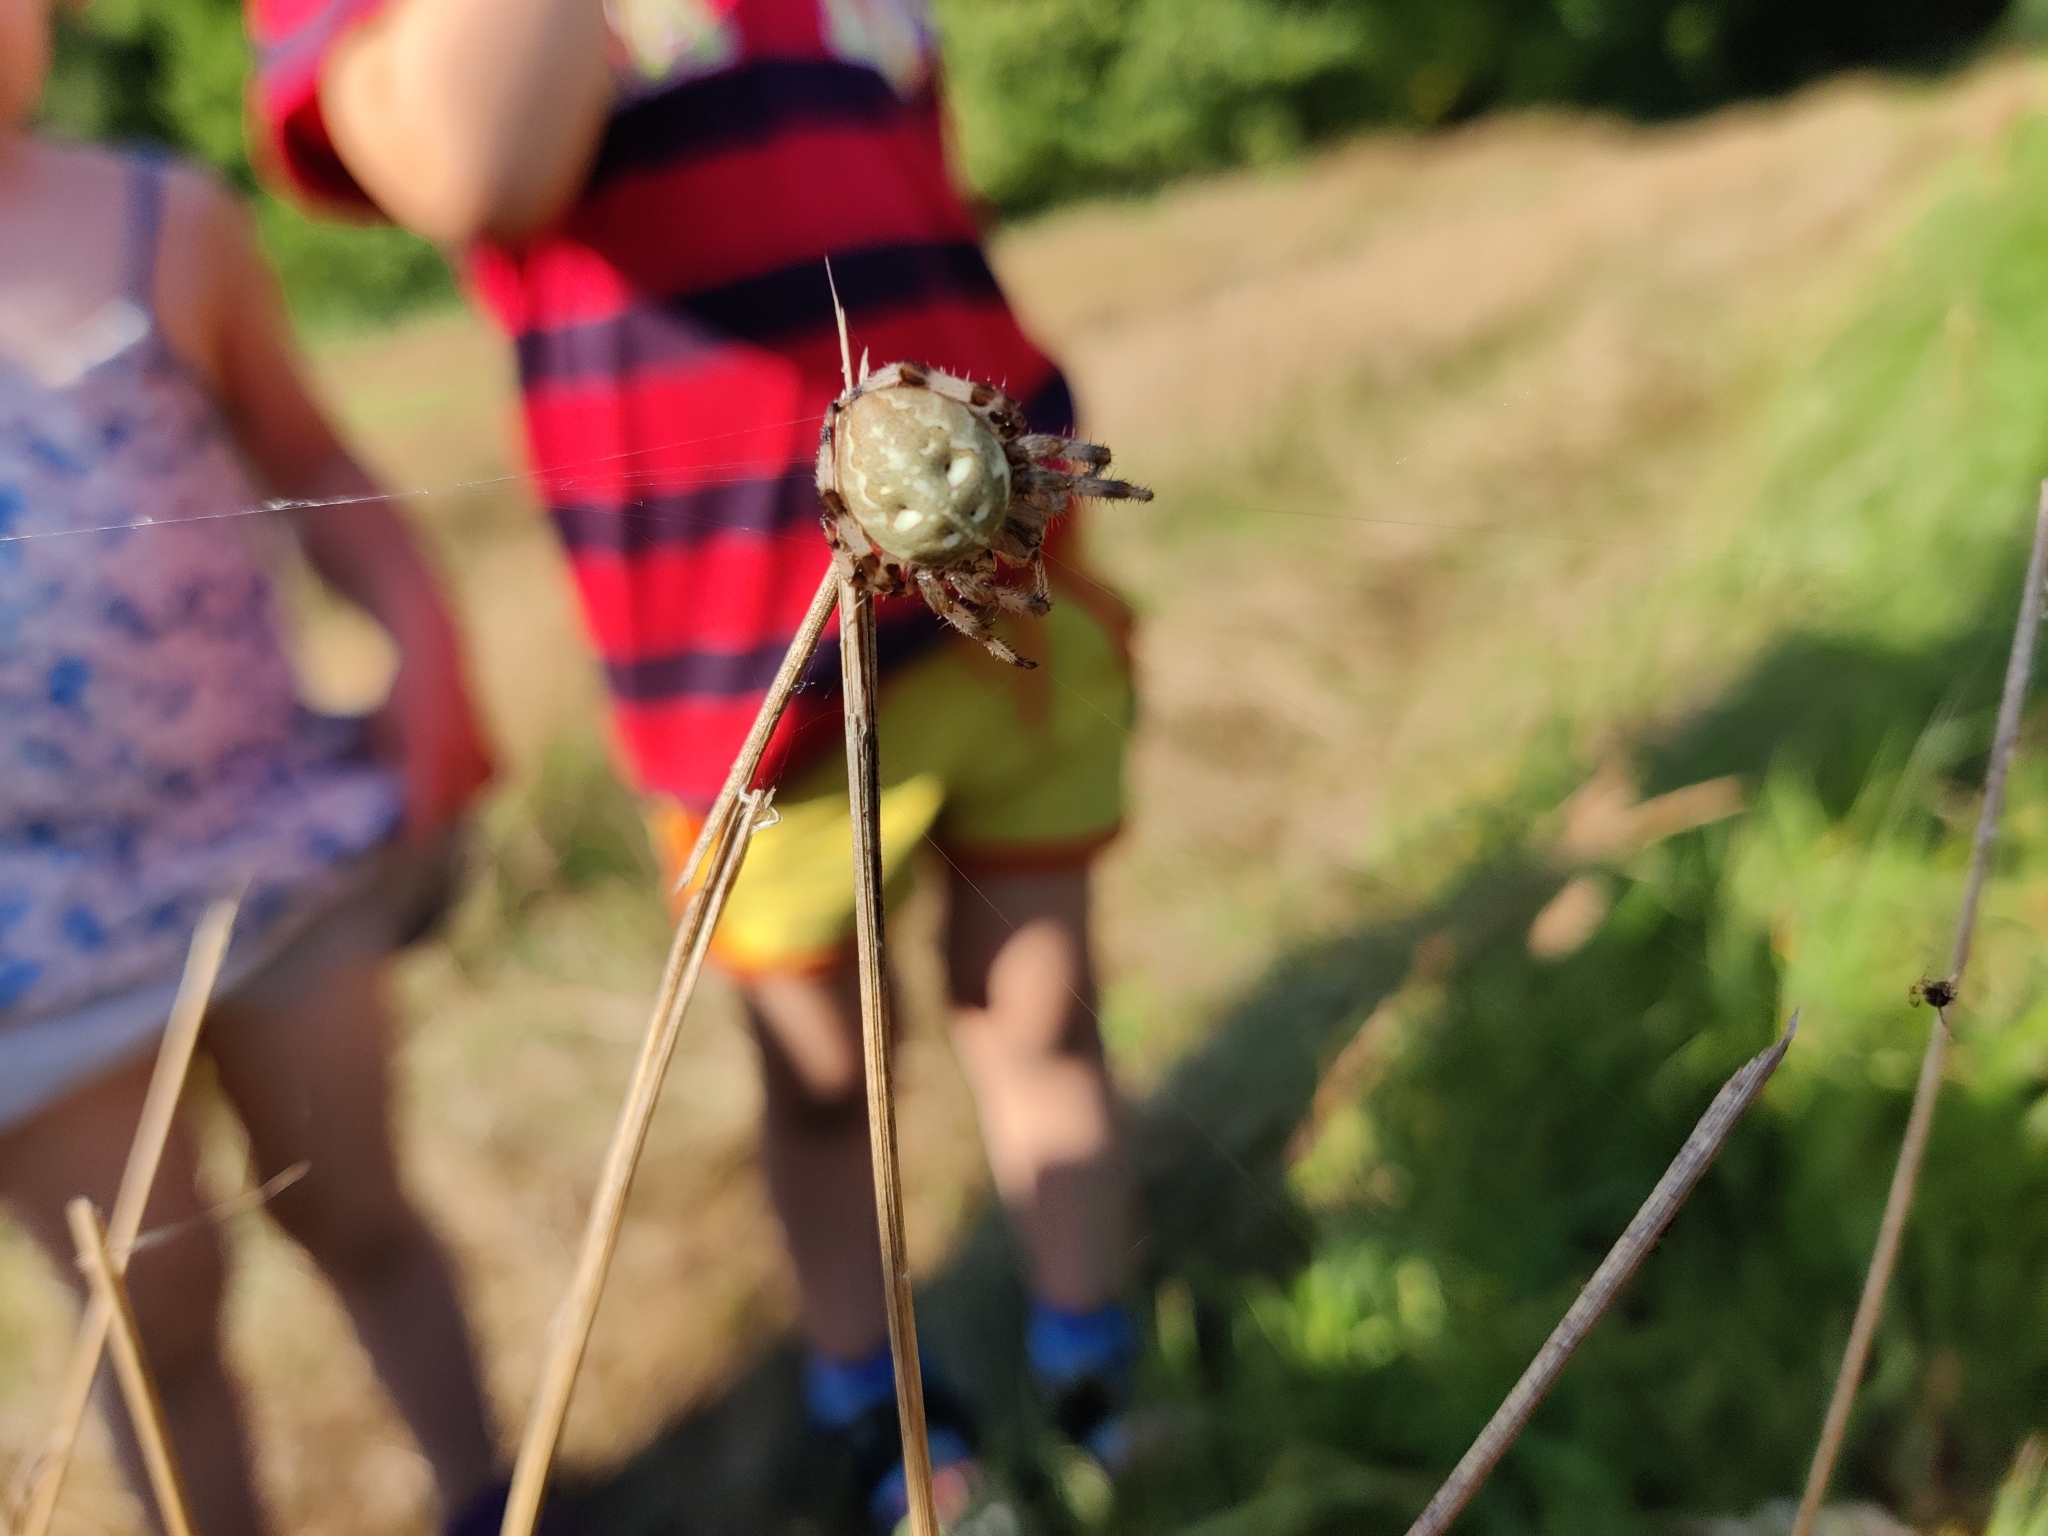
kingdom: Animalia
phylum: Arthropoda
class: Arachnida
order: Araneae
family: Araneidae
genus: Araneus
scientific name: Araneus quadratus
